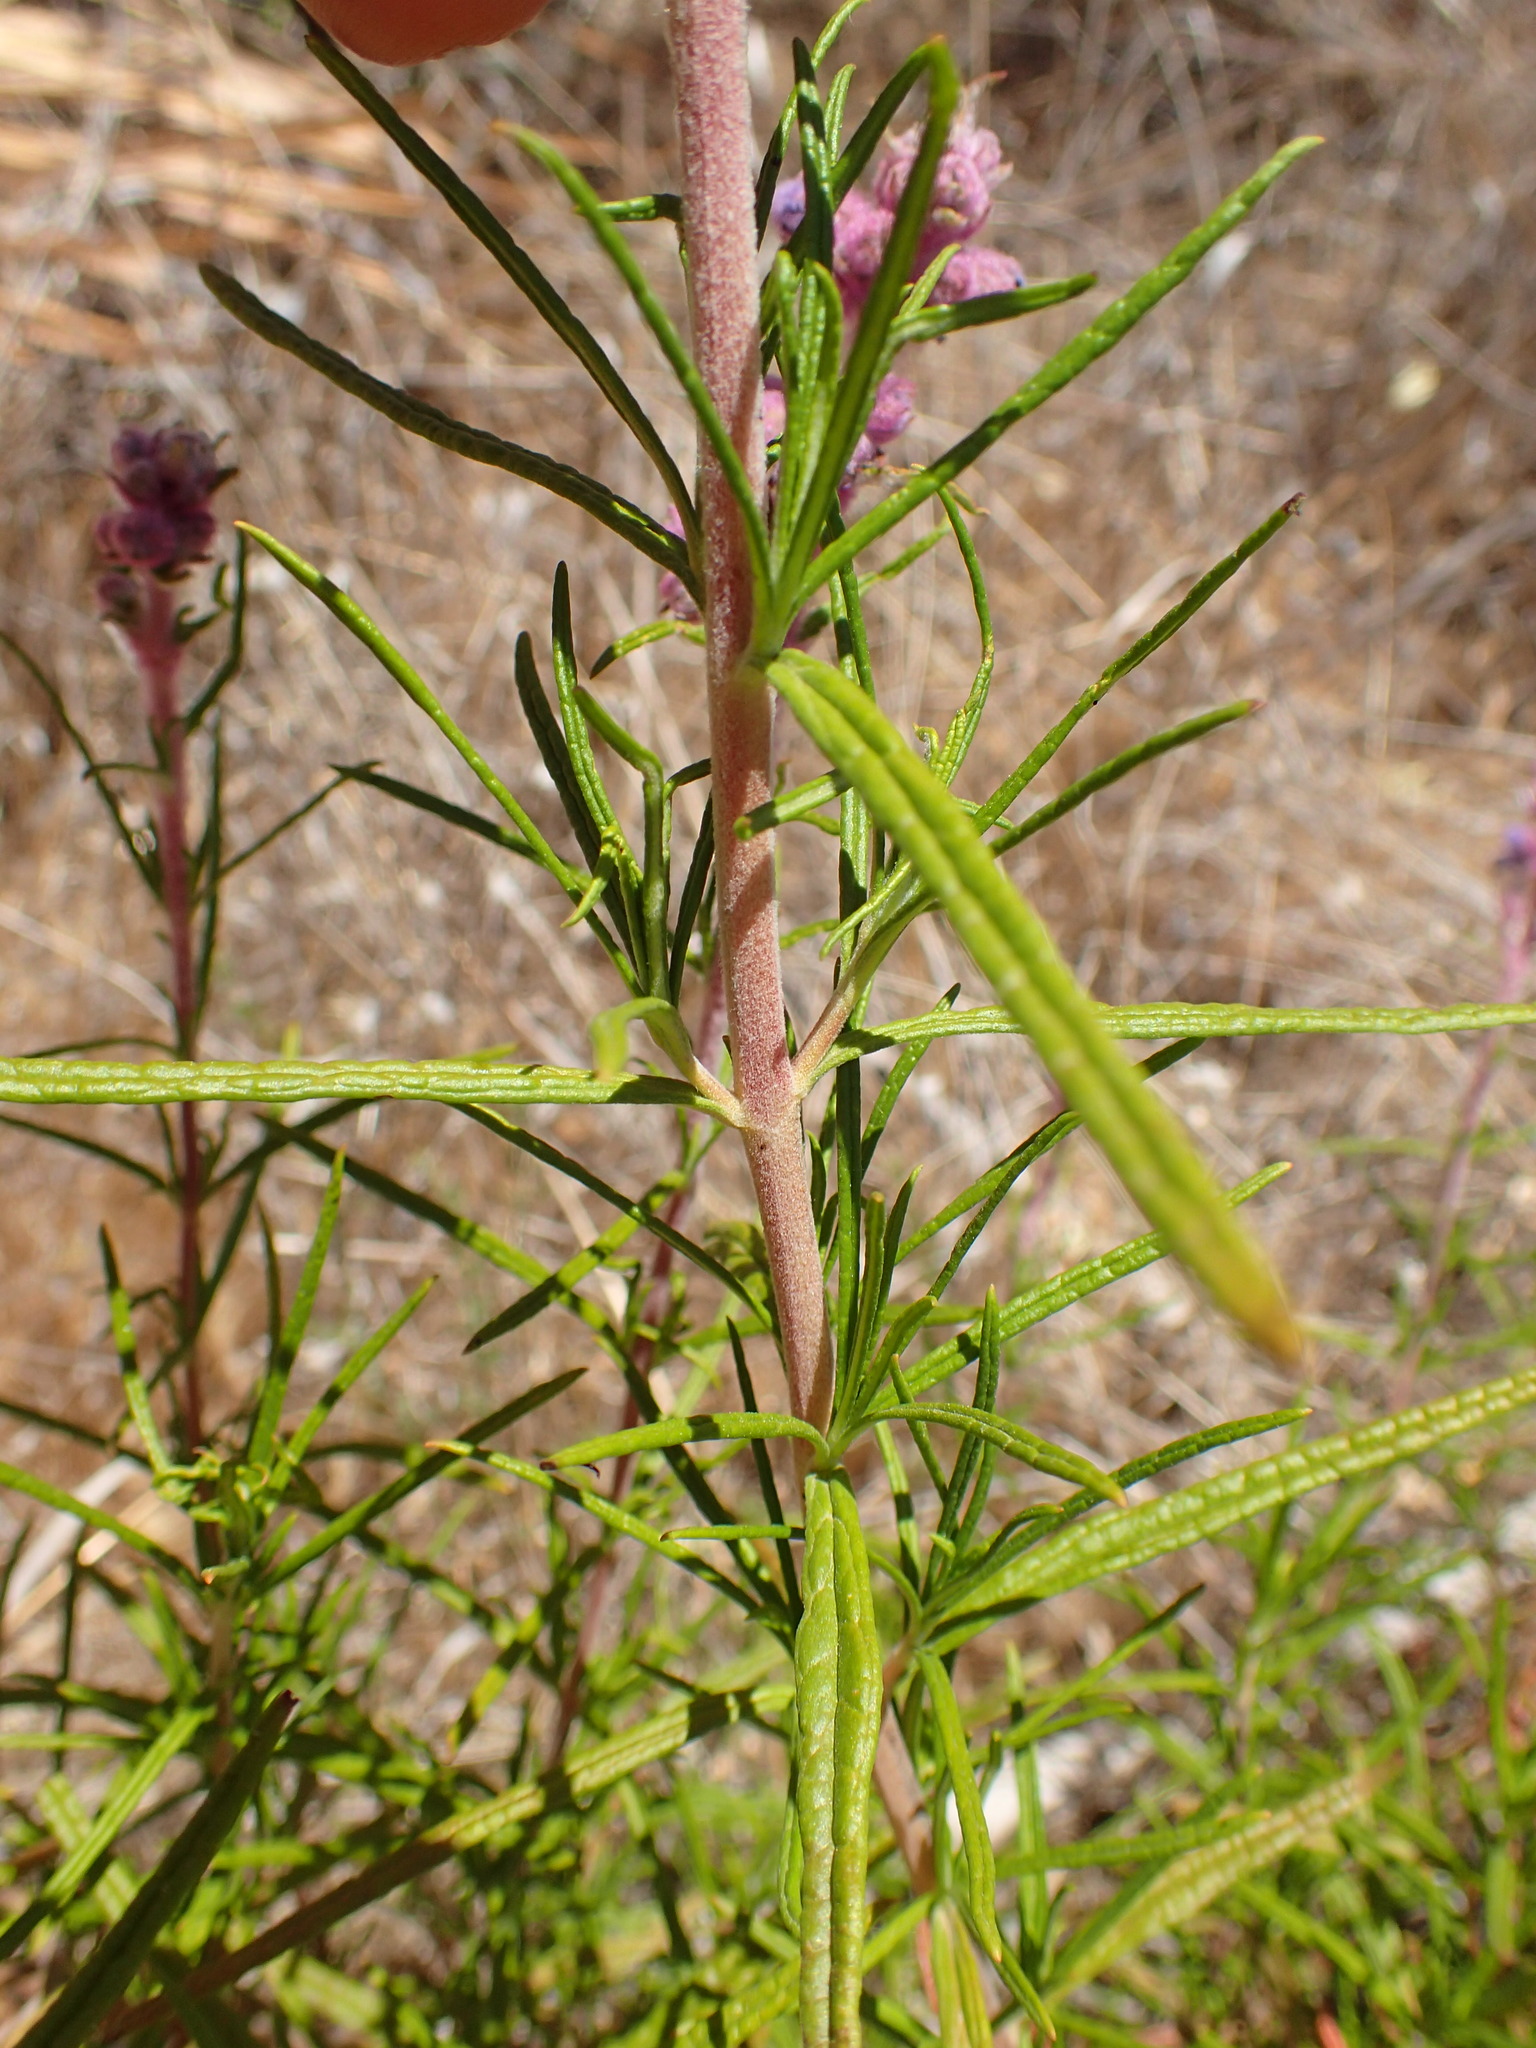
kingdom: Plantae
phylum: Tracheophyta
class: Magnoliopsida
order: Lamiales
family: Lamiaceae
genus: Trichostema
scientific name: Trichostema lanatum
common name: Woolly bluecurls
